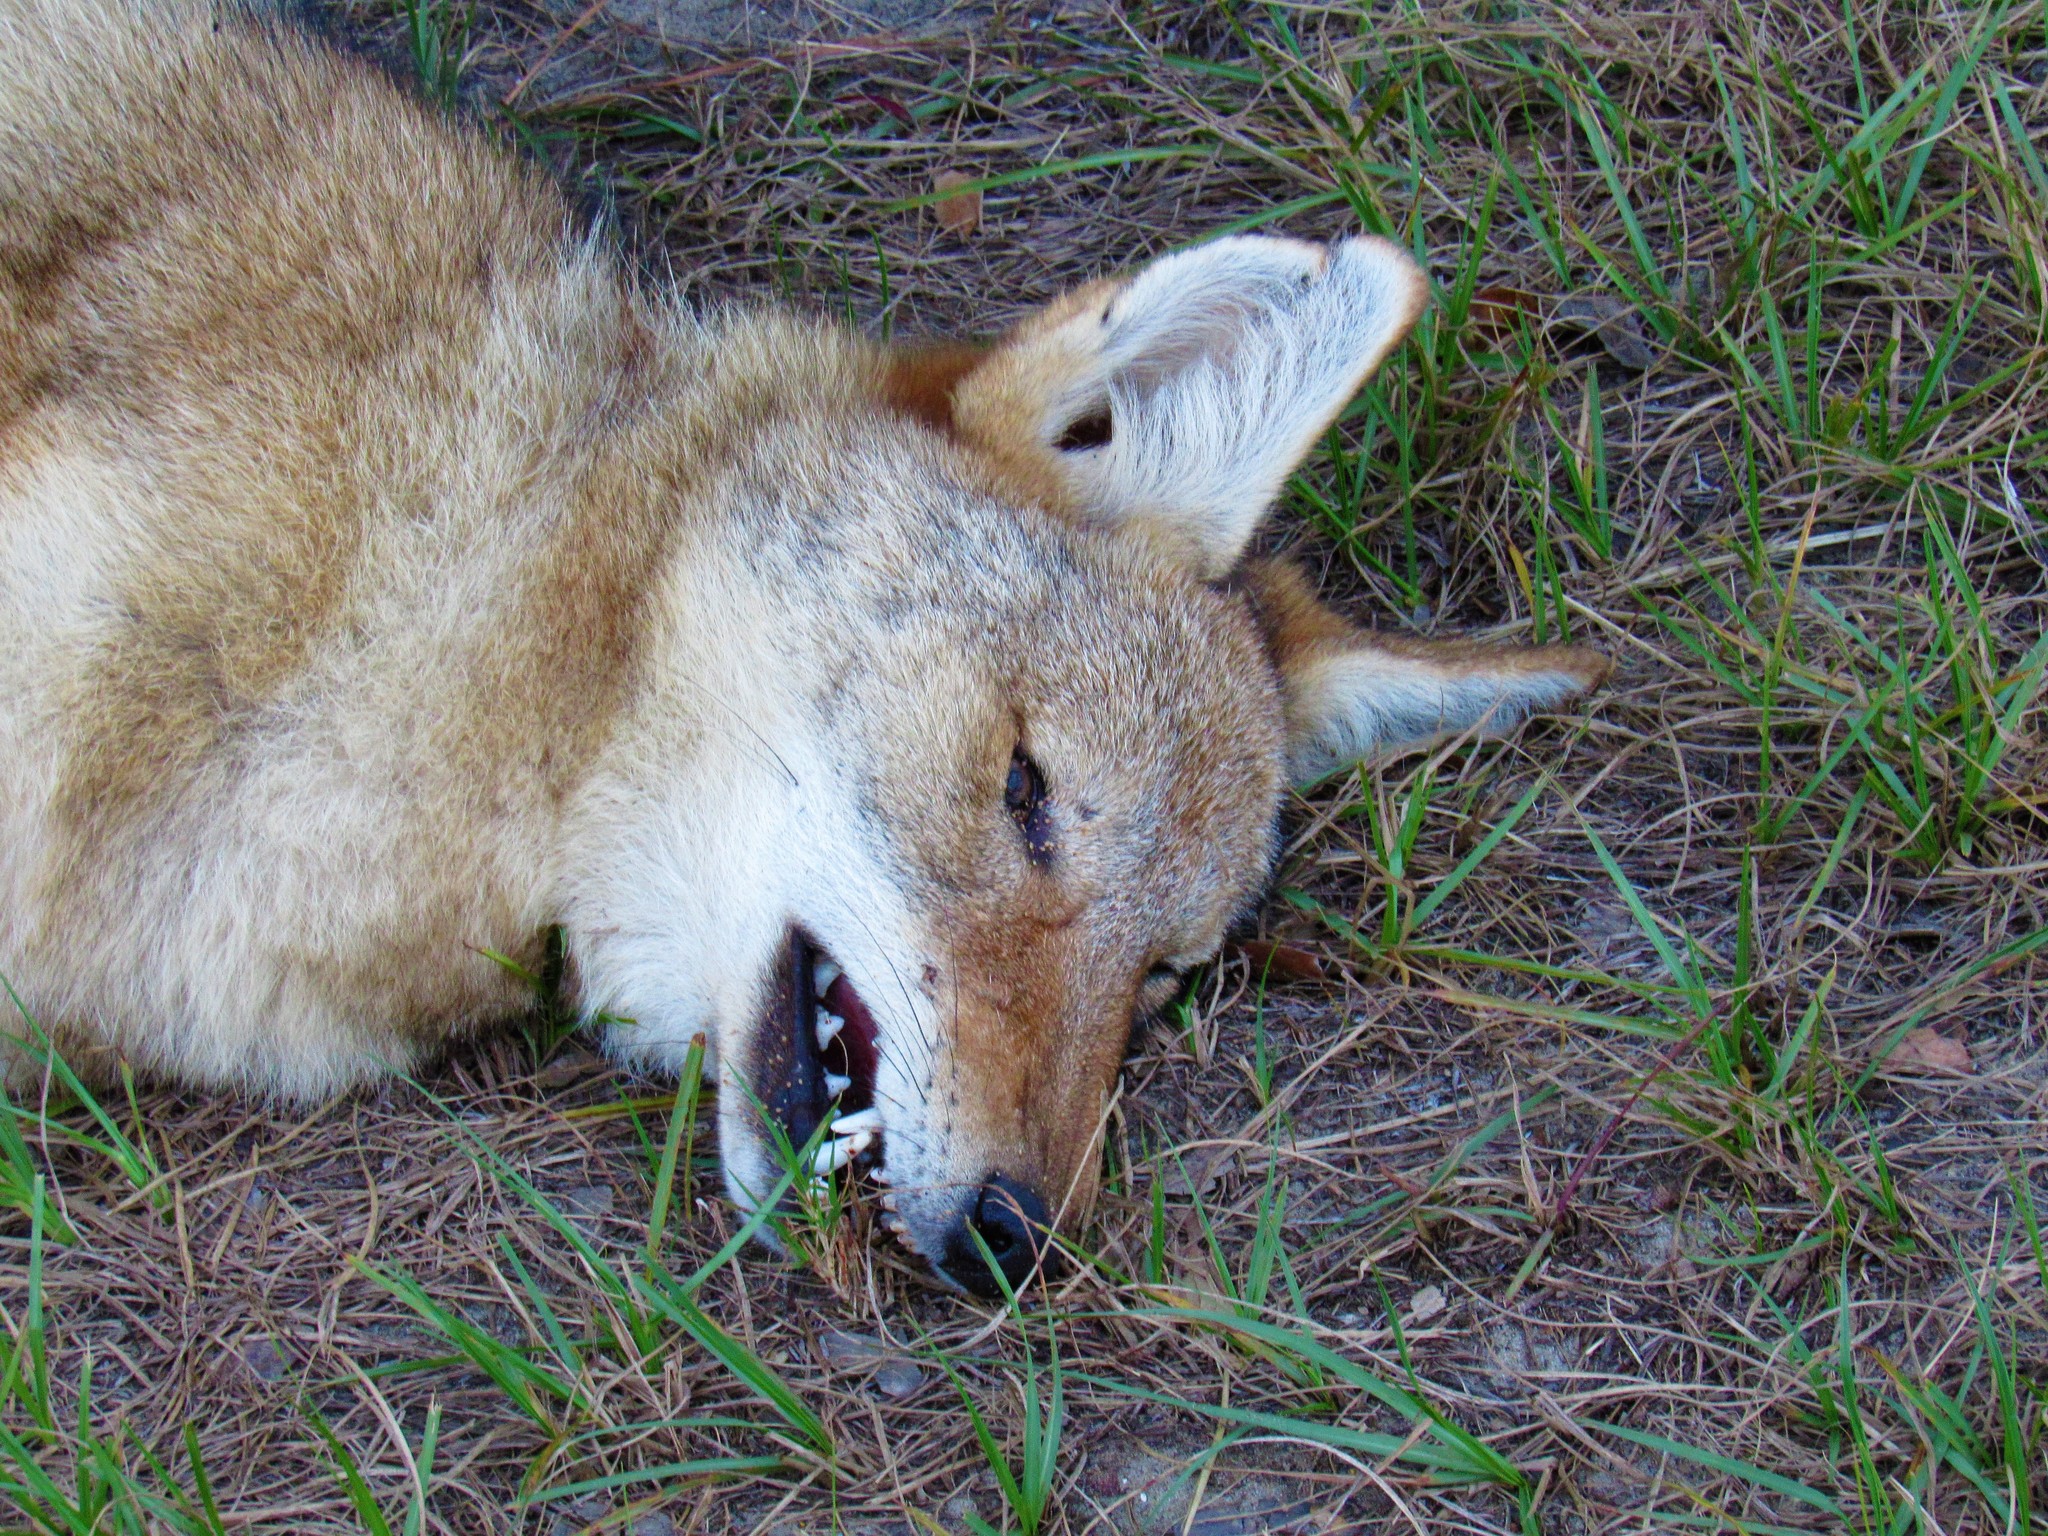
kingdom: Animalia
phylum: Chordata
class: Mammalia
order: Carnivora
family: Canidae
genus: Canis
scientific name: Canis latrans
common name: Coyote
